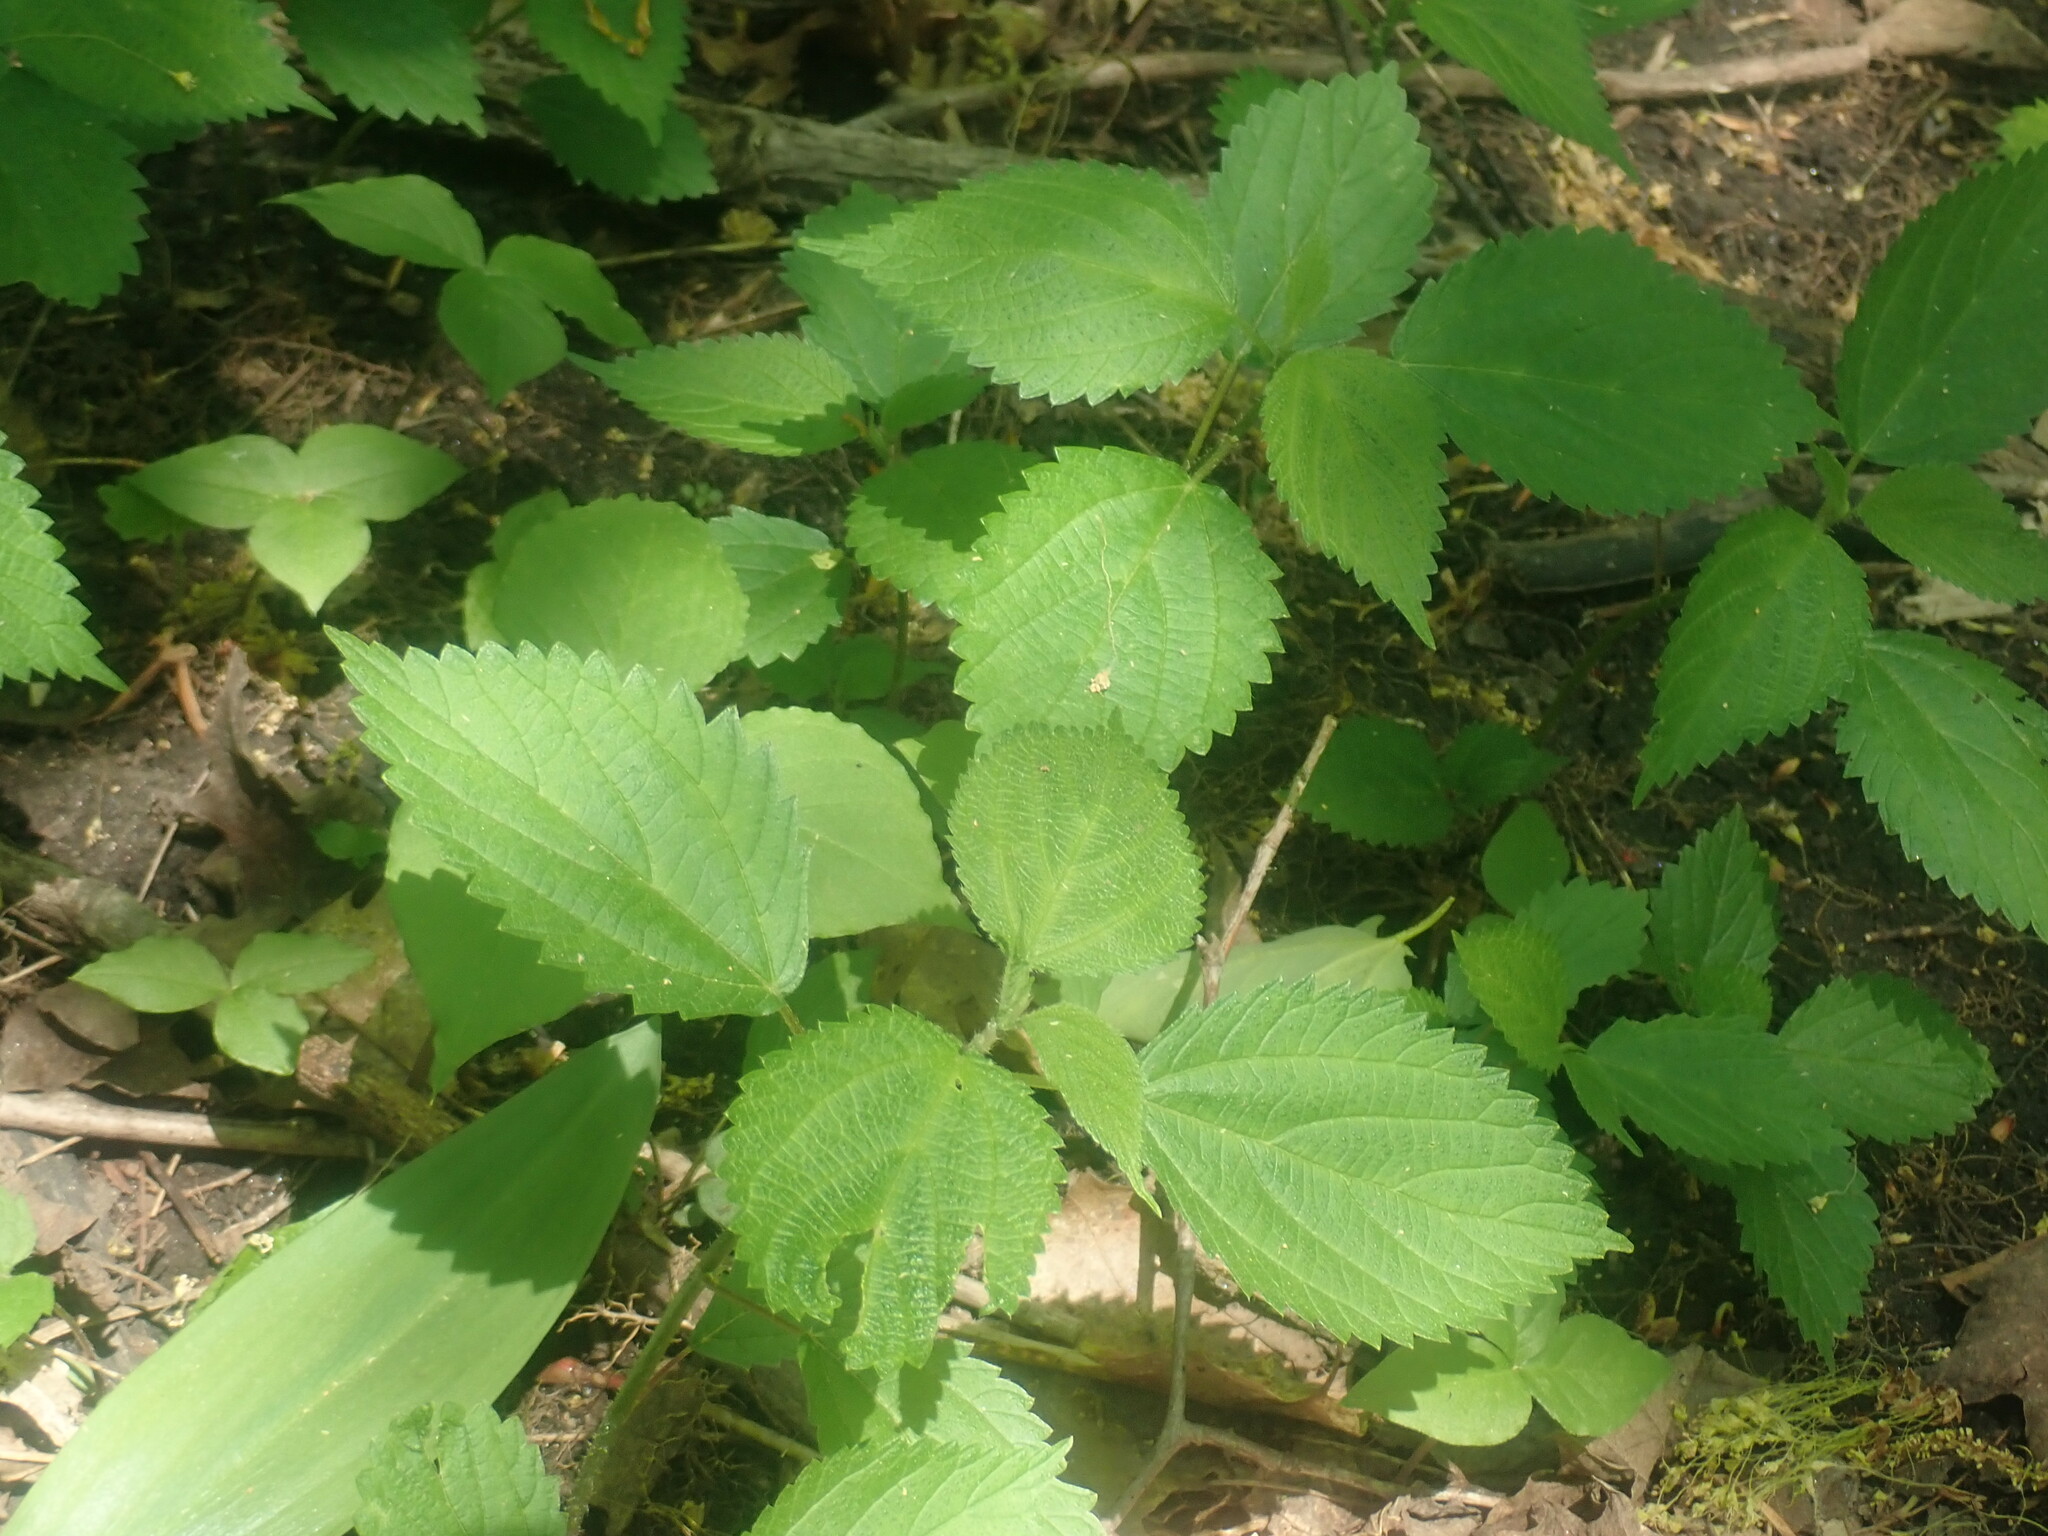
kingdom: Plantae
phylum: Tracheophyta
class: Magnoliopsida
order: Rosales
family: Urticaceae
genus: Laportea
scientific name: Laportea canadensis
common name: Canada nettle
